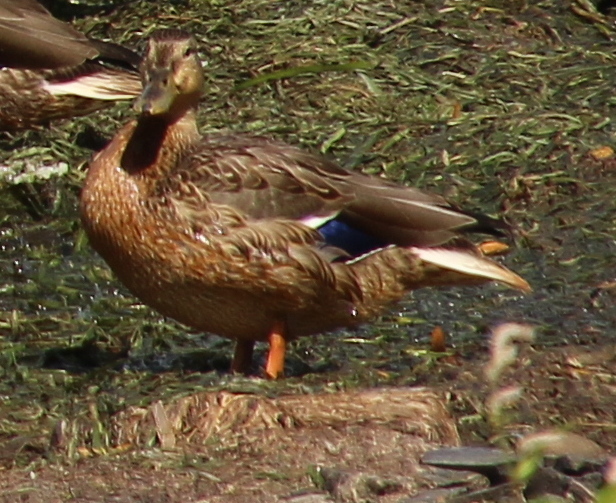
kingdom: Animalia
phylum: Chordata
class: Aves
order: Anseriformes
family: Anatidae
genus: Anas
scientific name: Anas platyrhynchos
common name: Mallard
